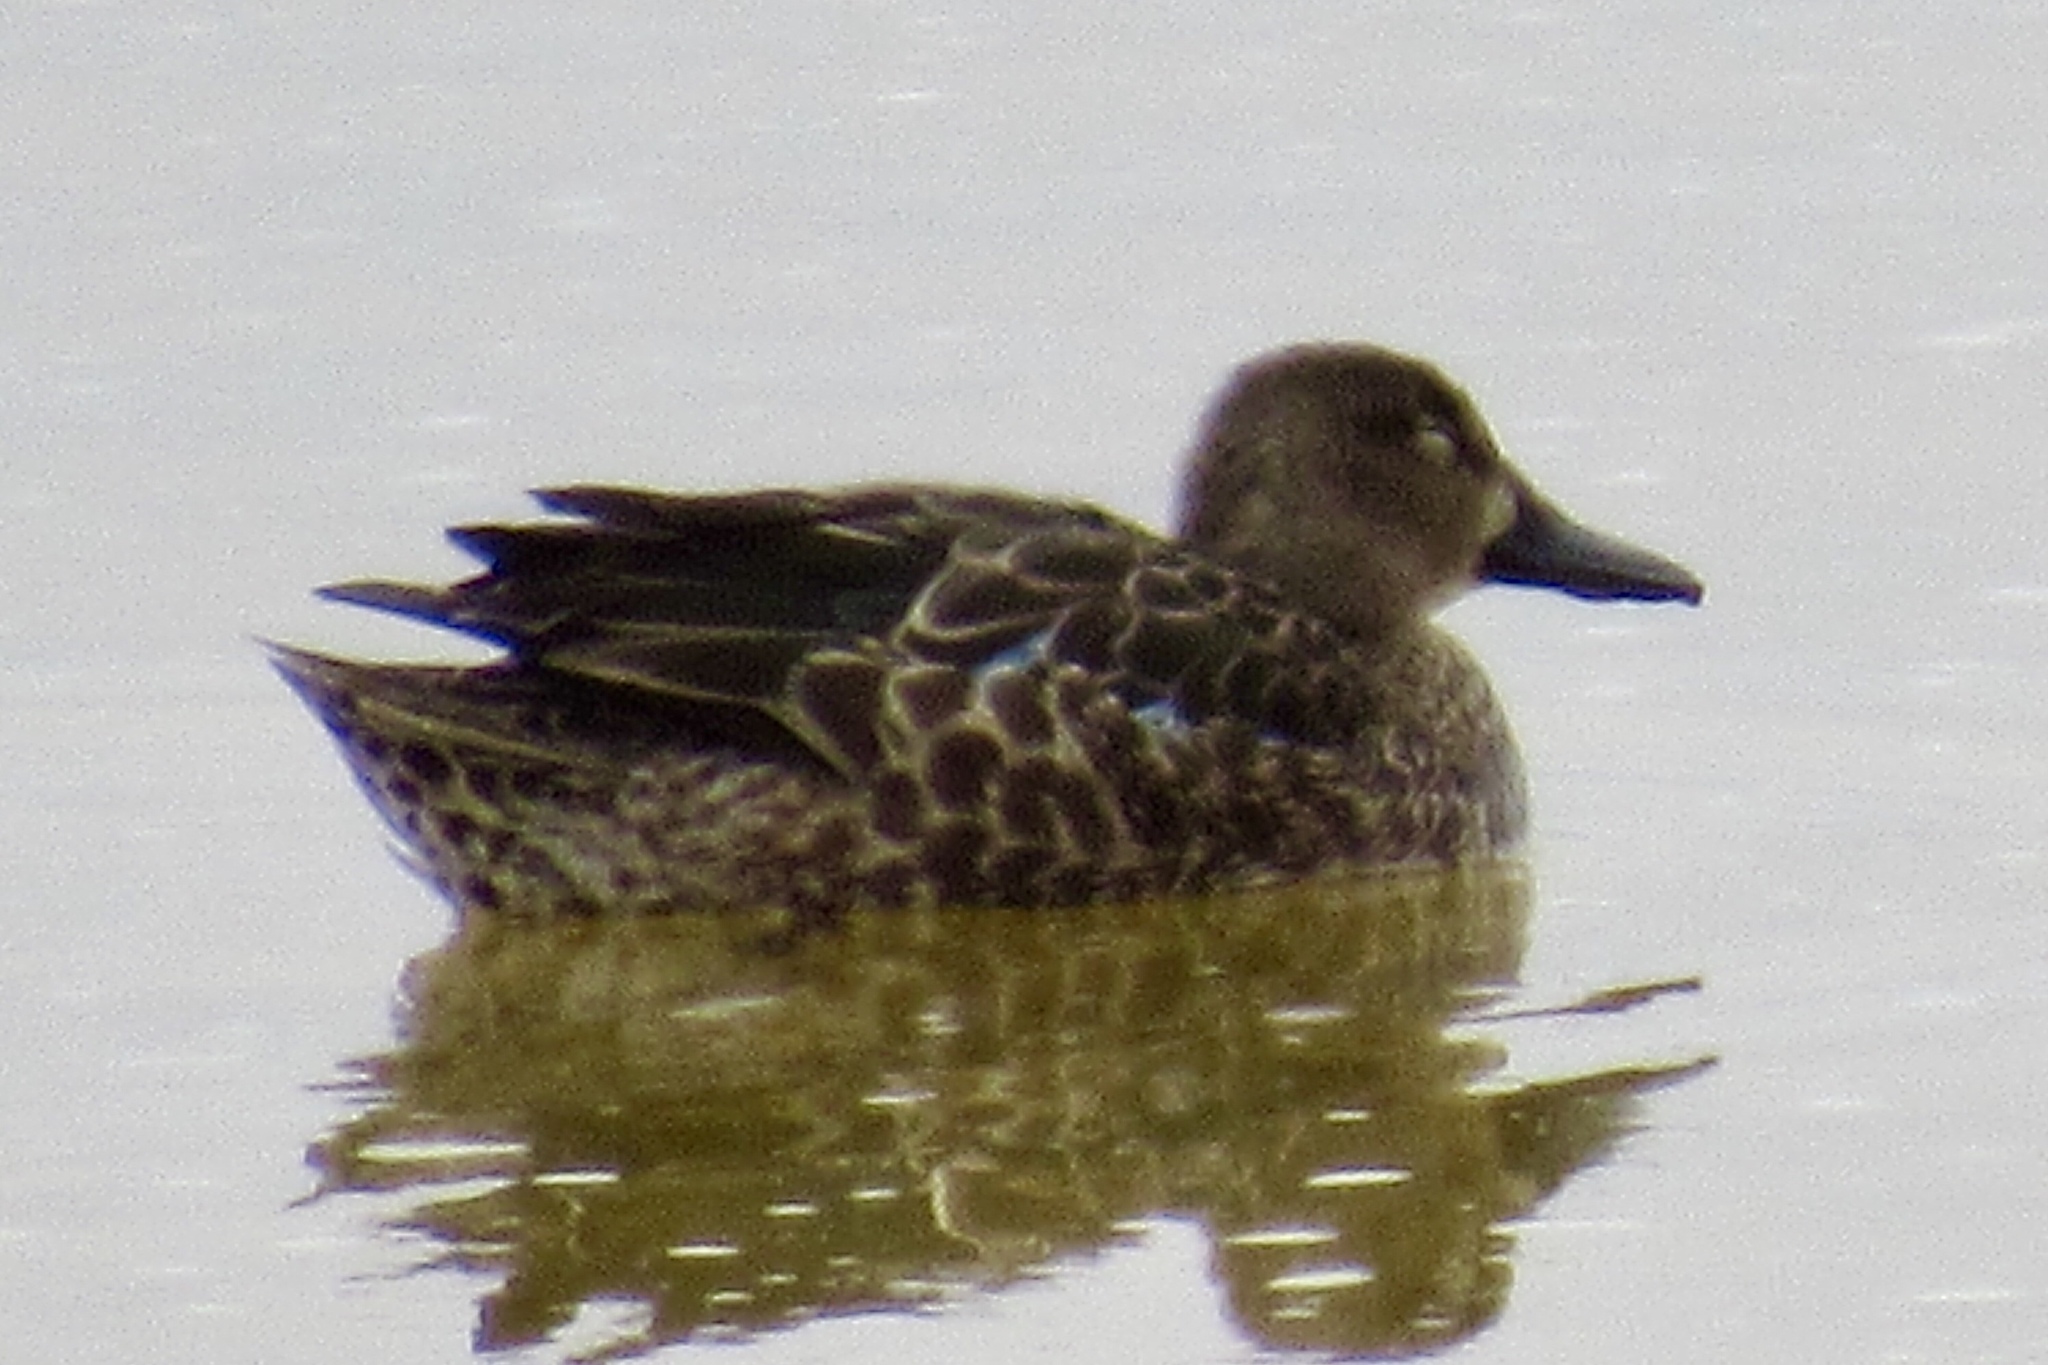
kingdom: Animalia
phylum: Chordata
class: Aves
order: Anseriformes
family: Anatidae
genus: Spatula
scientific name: Spatula discors
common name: Blue-winged teal
